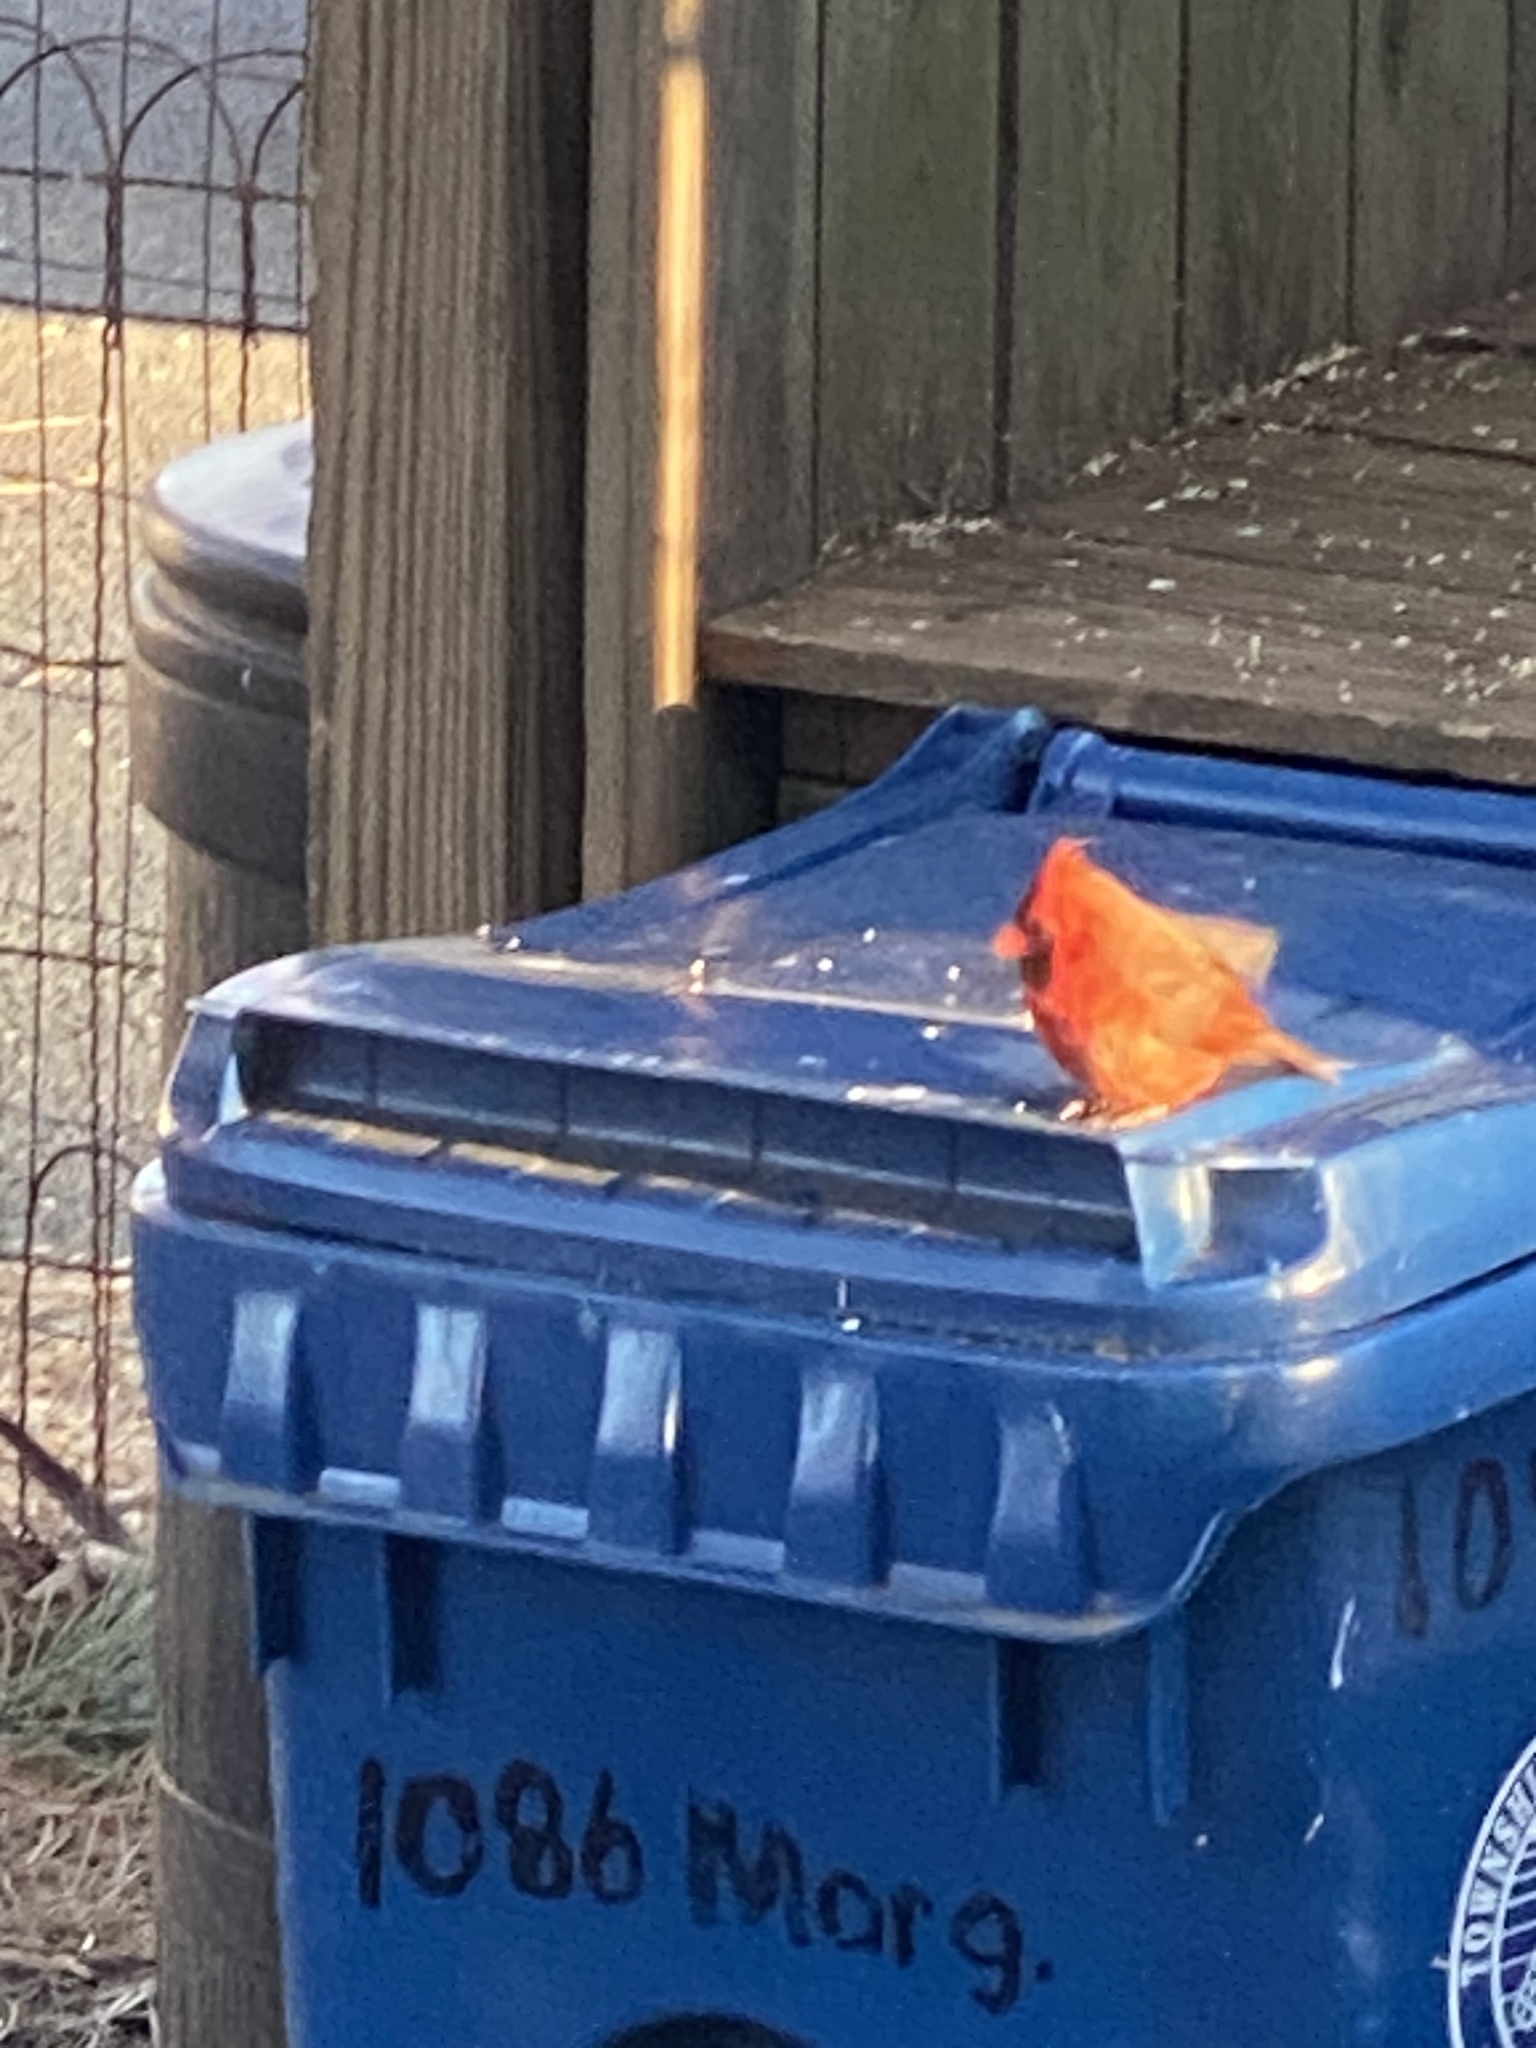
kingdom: Animalia
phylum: Chordata
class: Aves
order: Passeriformes
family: Cardinalidae
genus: Cardinalis
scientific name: Cardinalis cardinalis
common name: Northern cardinal
